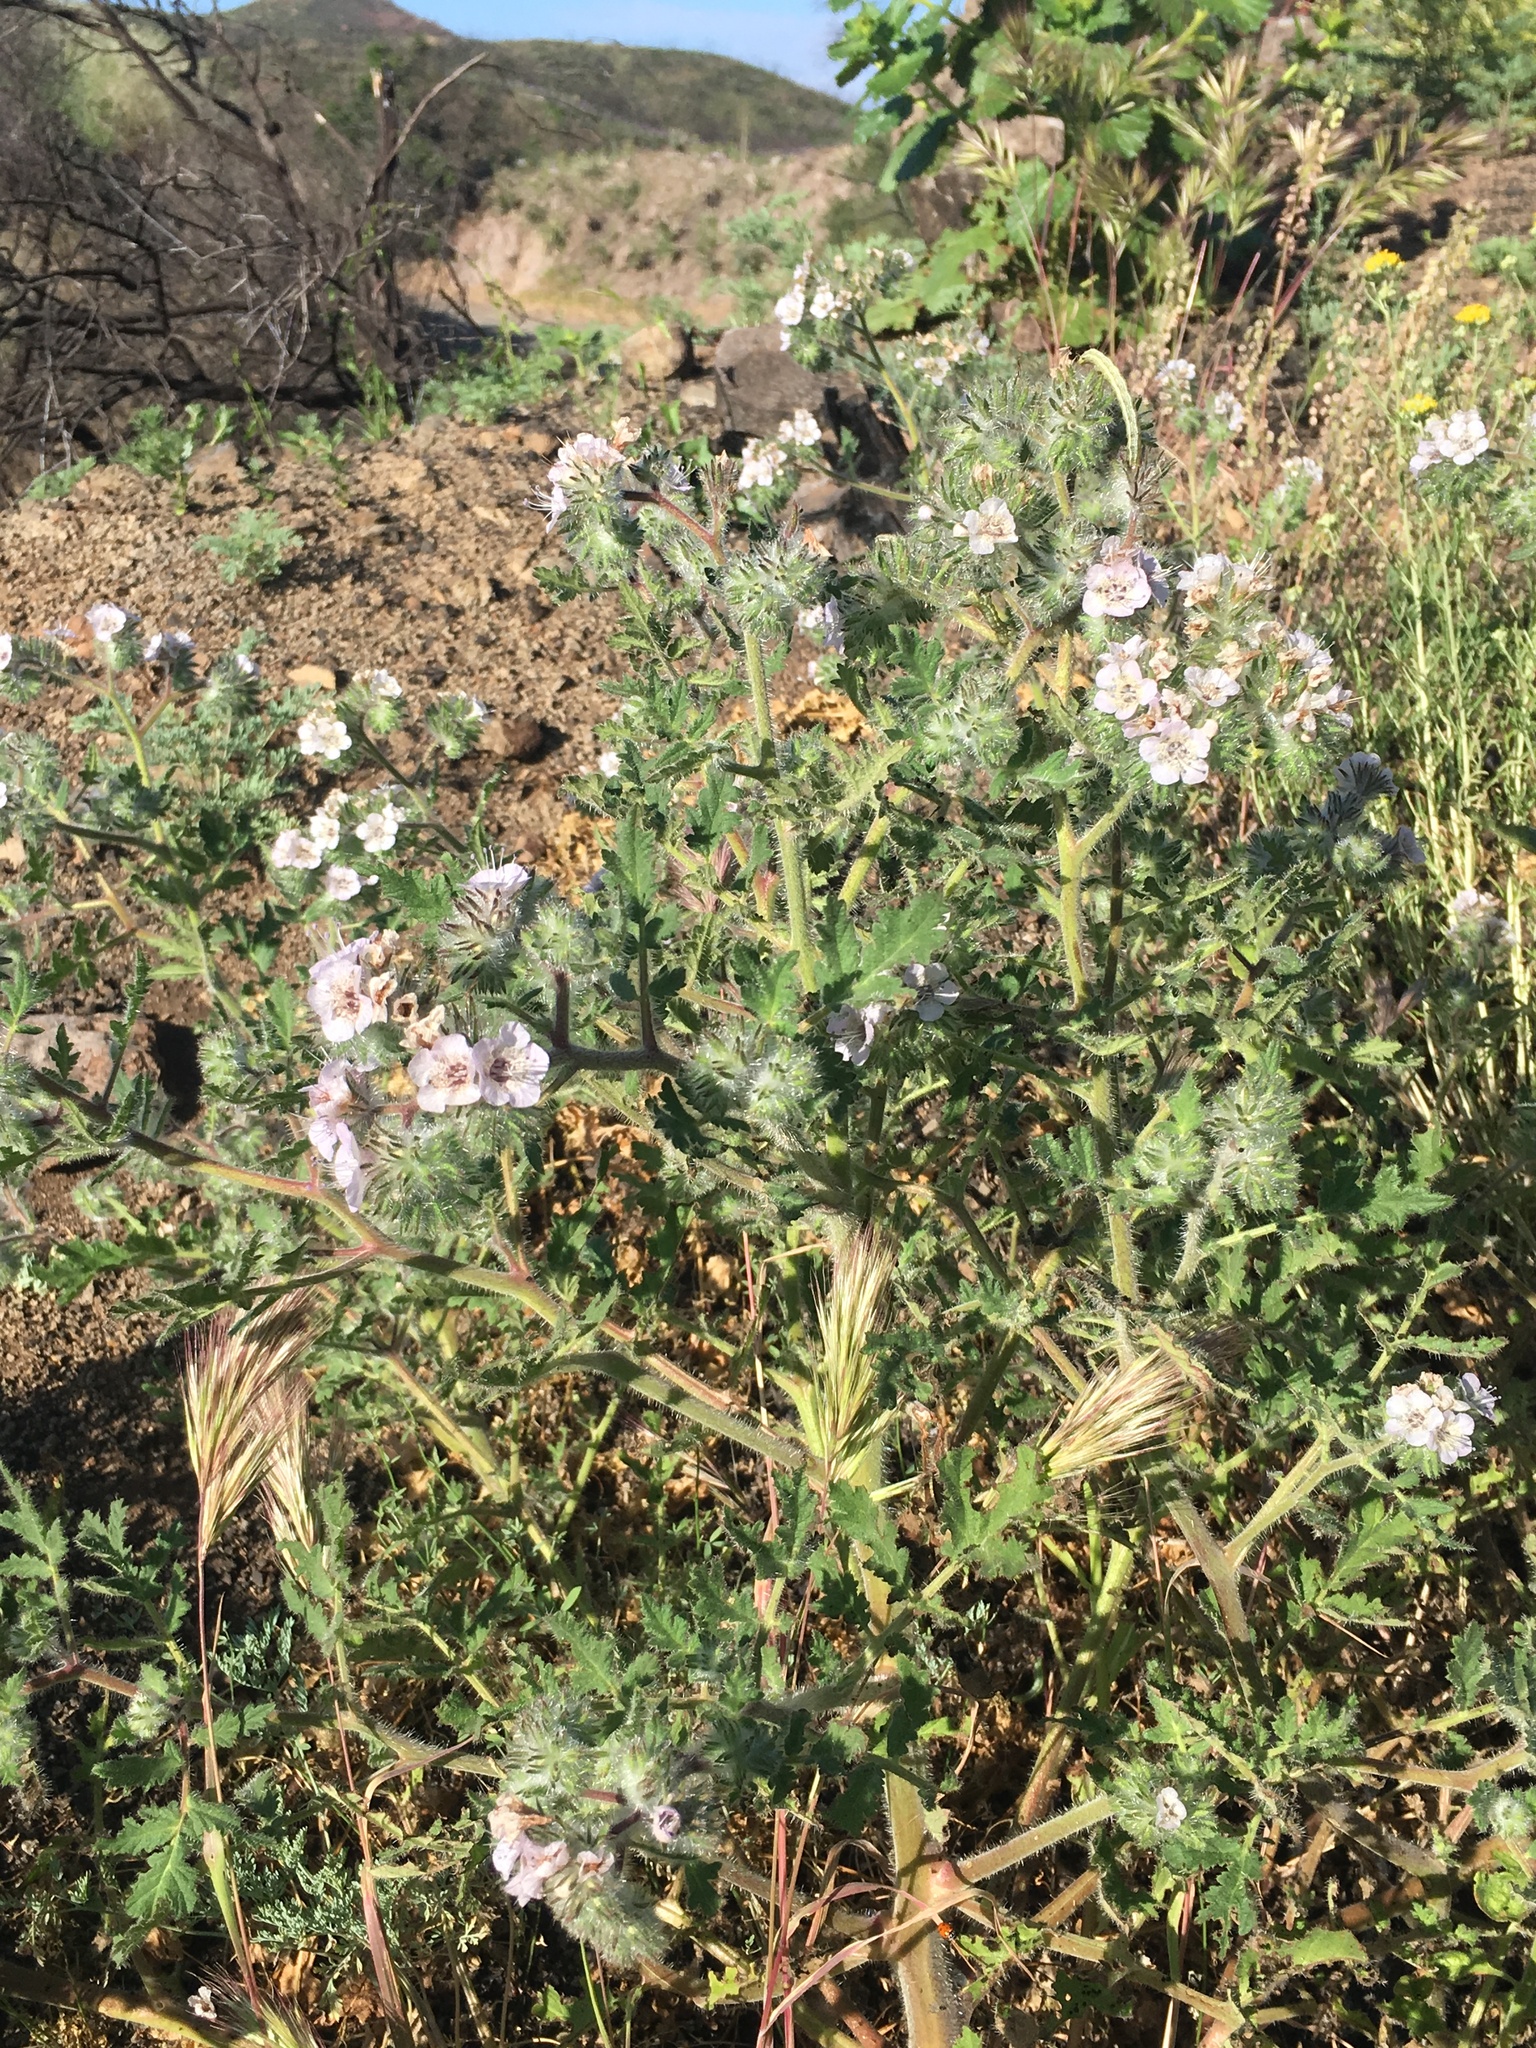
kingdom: Plantae
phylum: Tracheophyta
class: Liliopsida
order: Poales
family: Poaceae
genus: Bromus
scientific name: Bromus rubens
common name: Red brome
